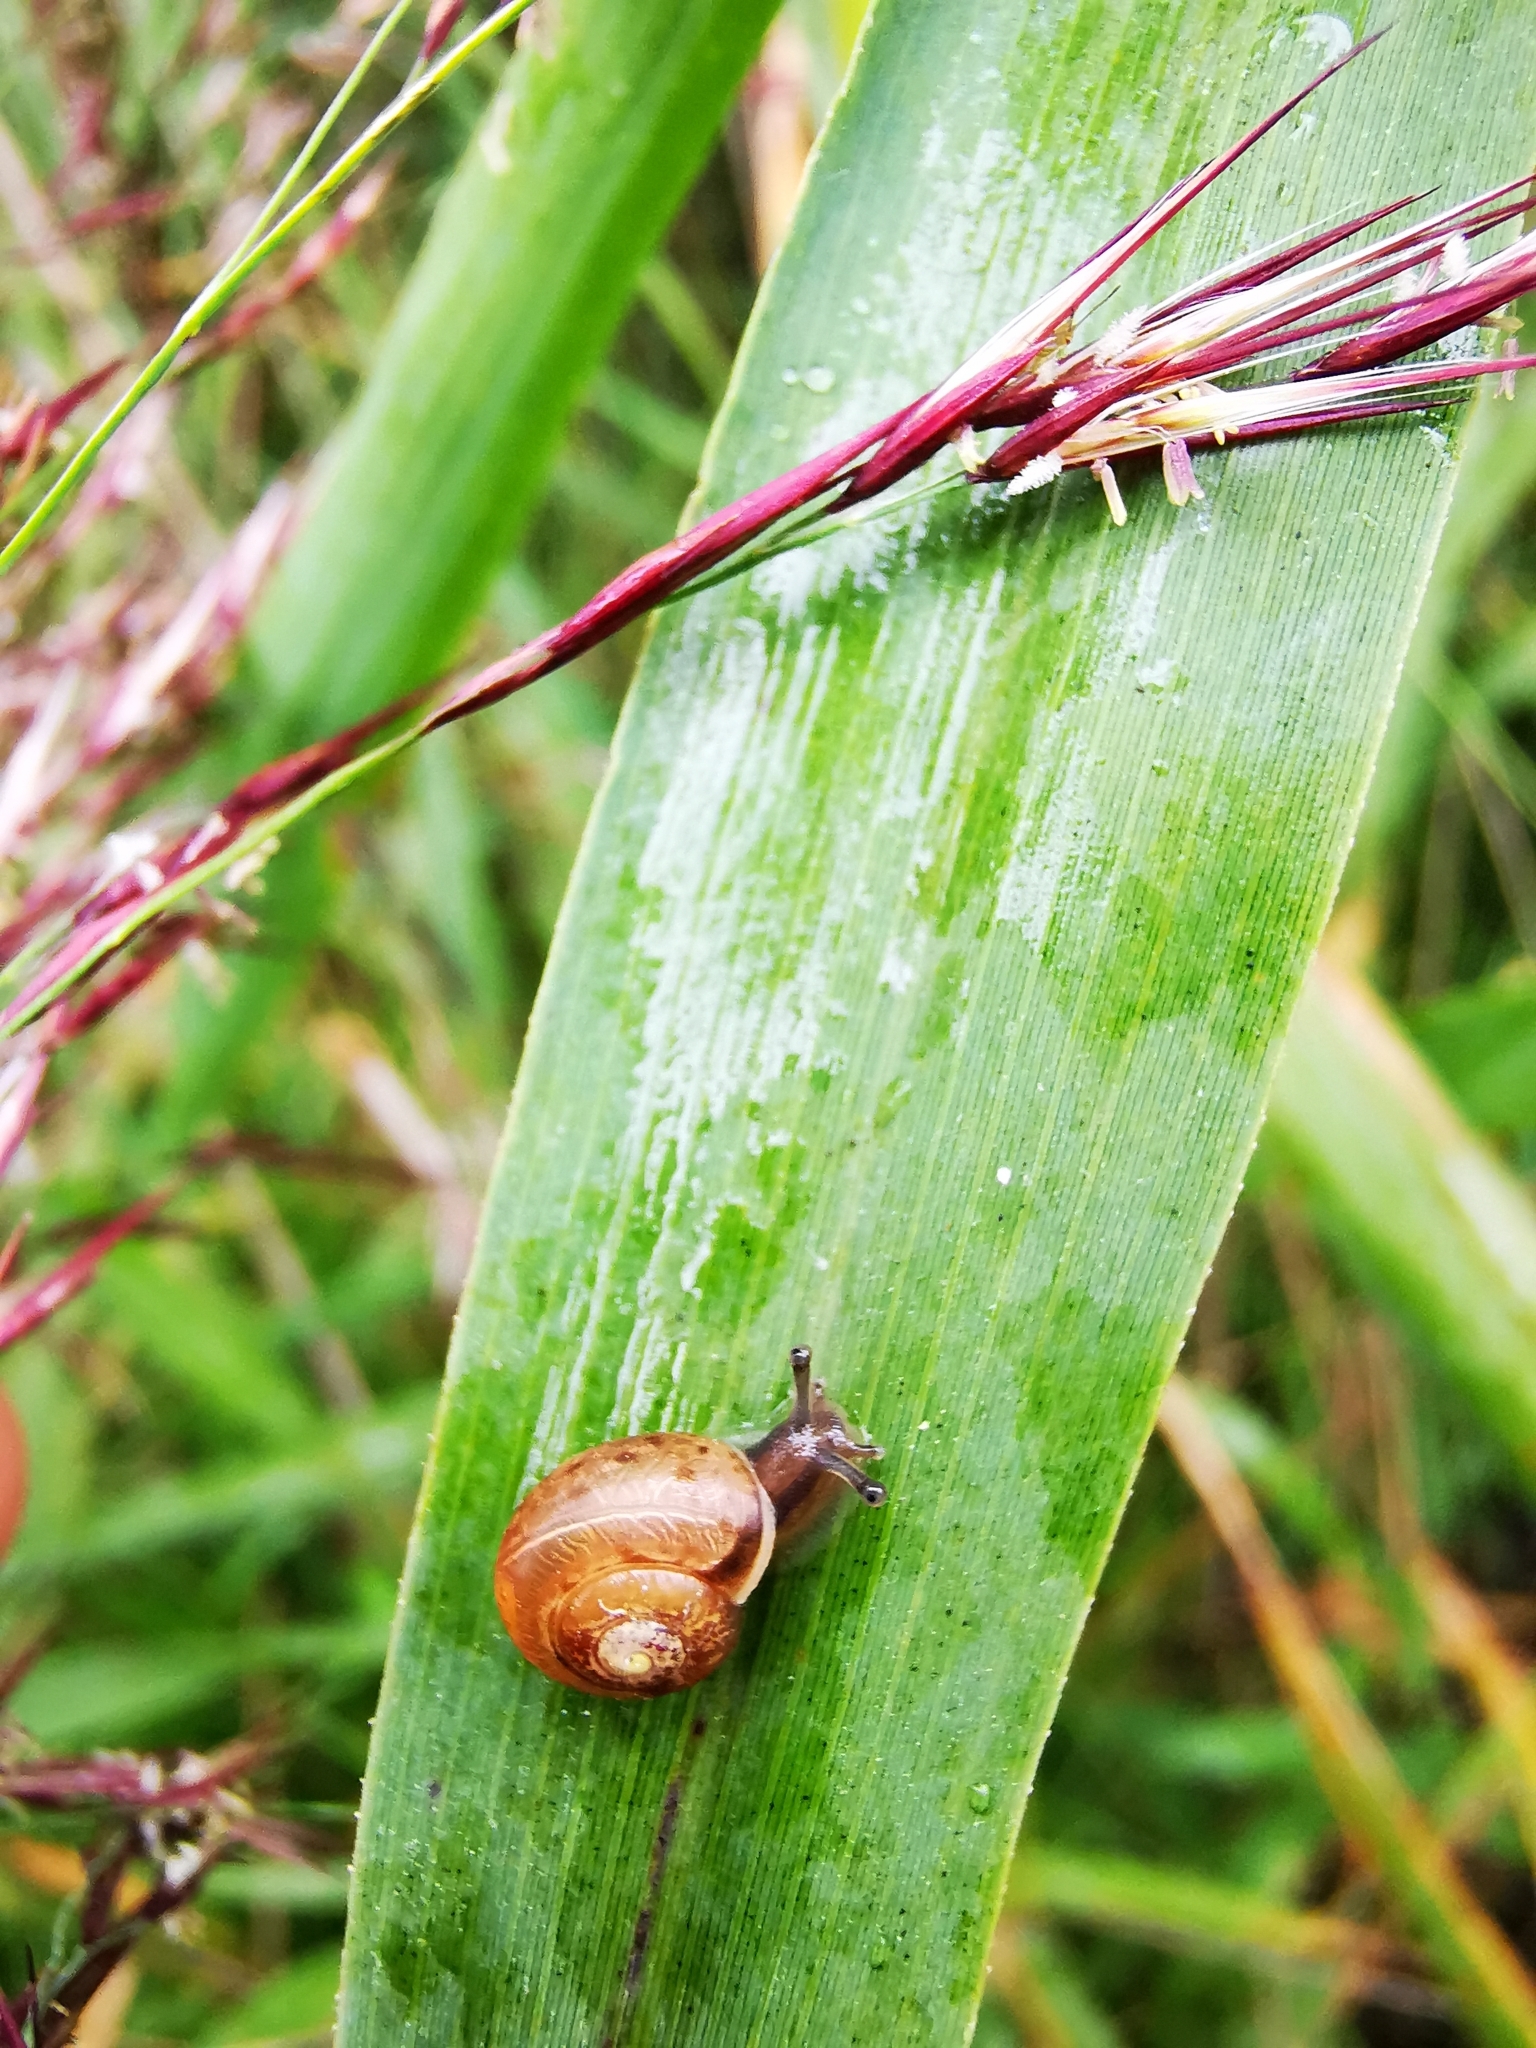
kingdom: Animalia
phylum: Mollusca
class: Gastropoda
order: Stylommatophora
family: Camaenidae
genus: Fruticicola
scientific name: Fruticicola fruticum
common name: Bush snail
